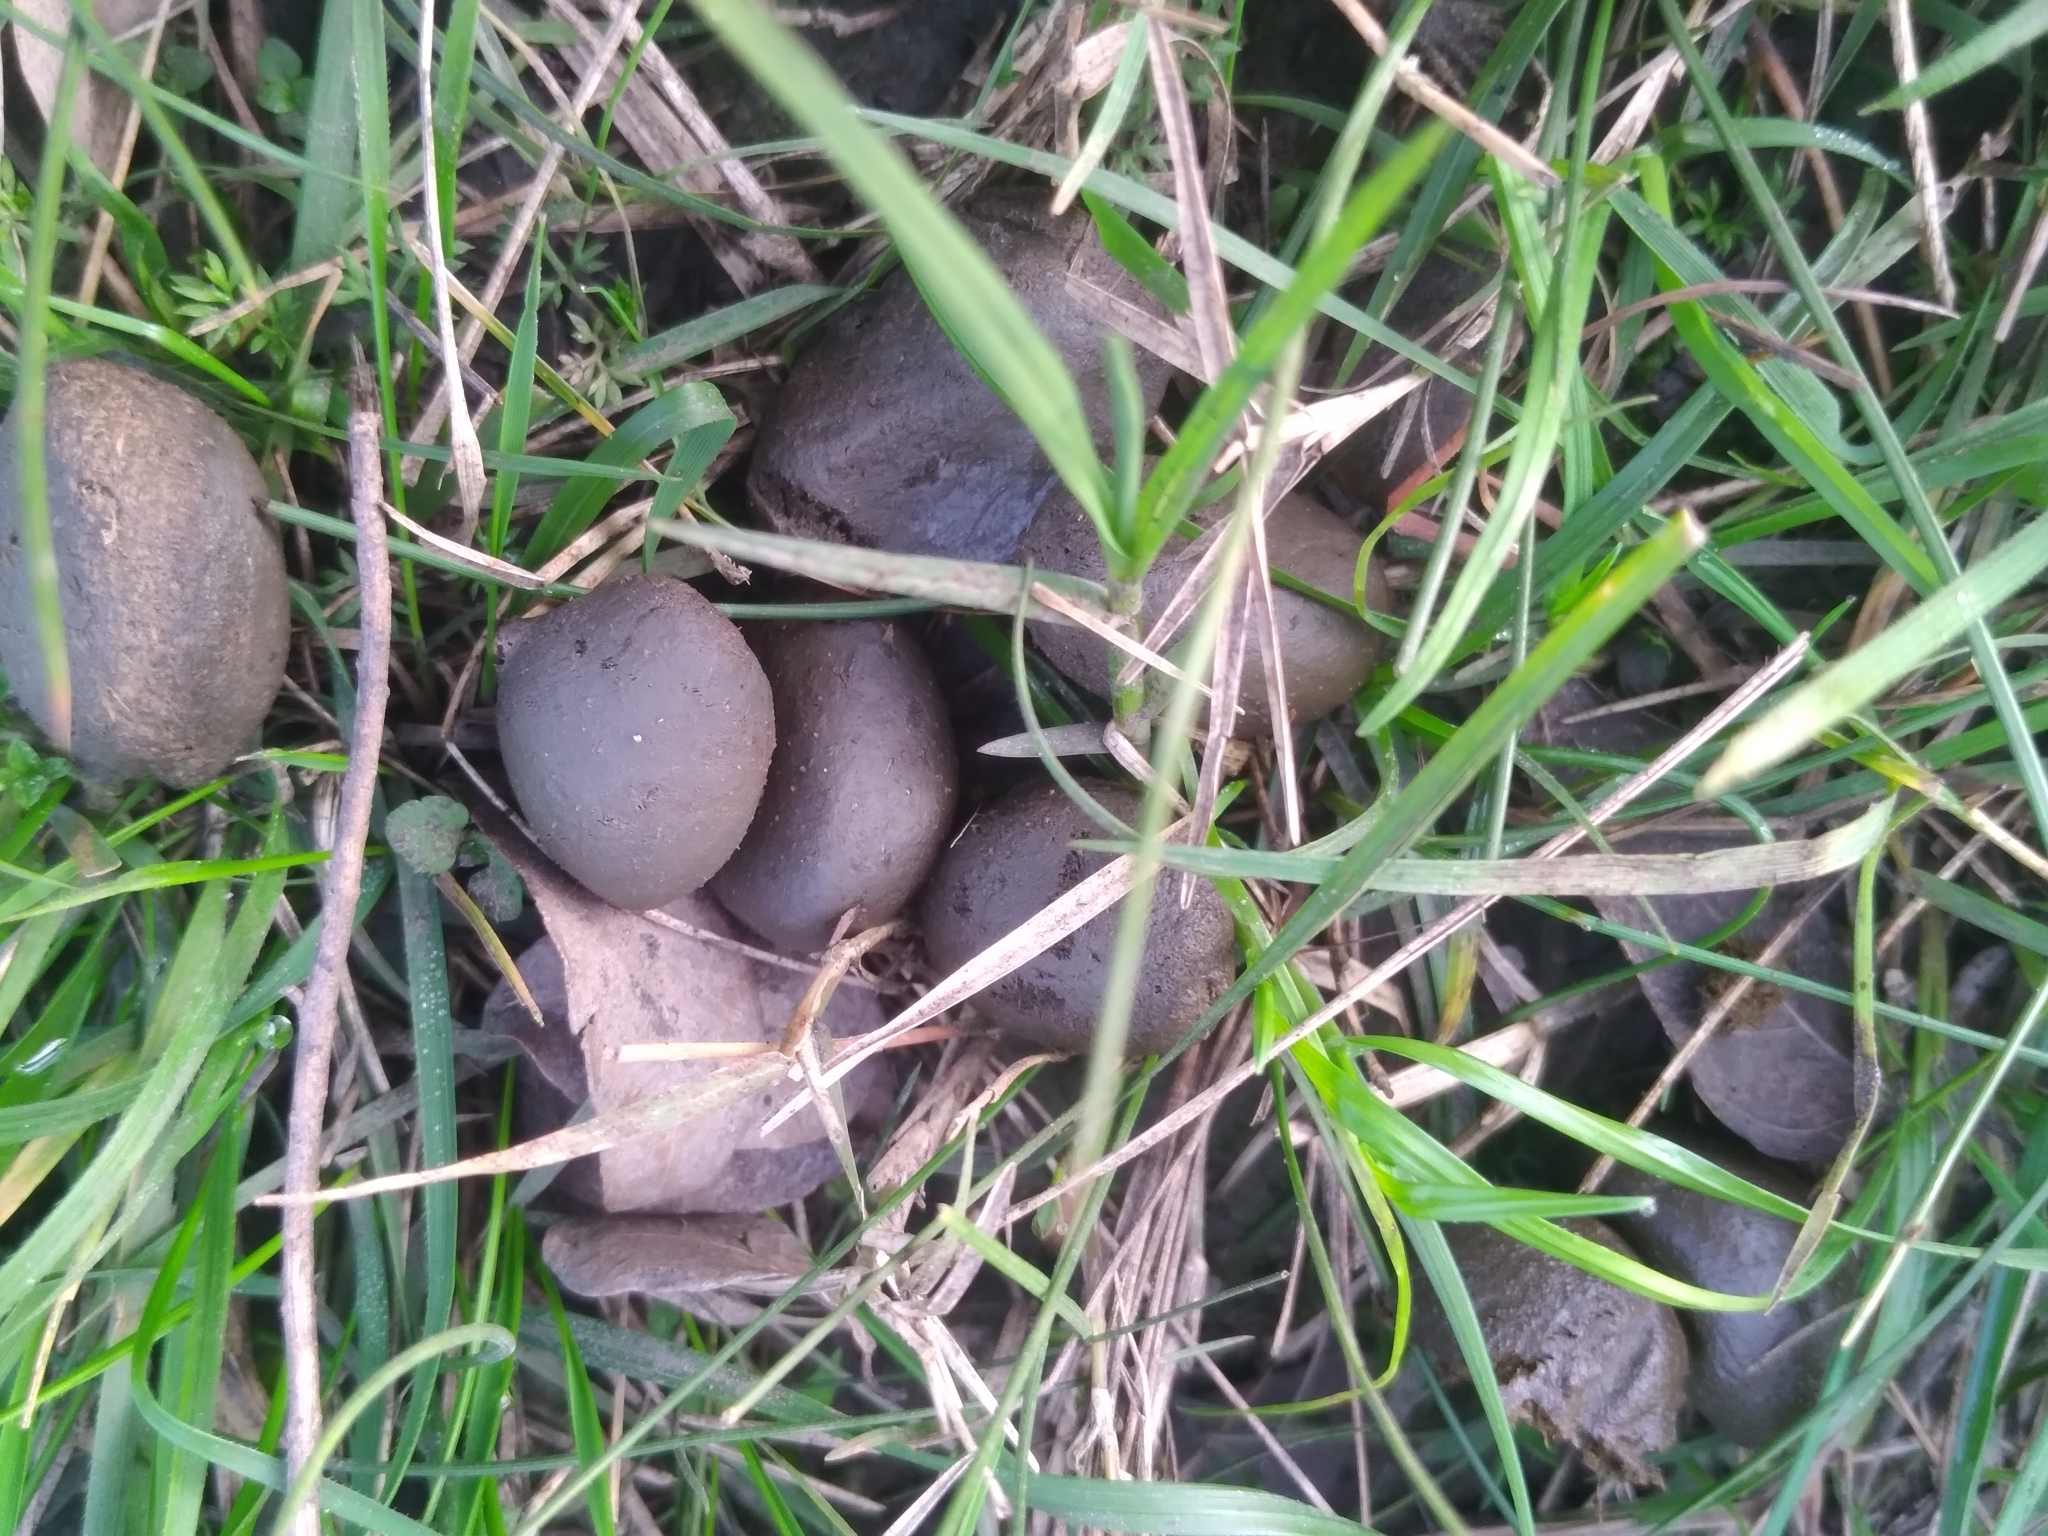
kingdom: Animalia
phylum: Chordata
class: Mammalia
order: Rodentia
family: Caviidae
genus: Hydrochoerus
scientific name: Hydrochoerus hydrochaeris
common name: Capybara
